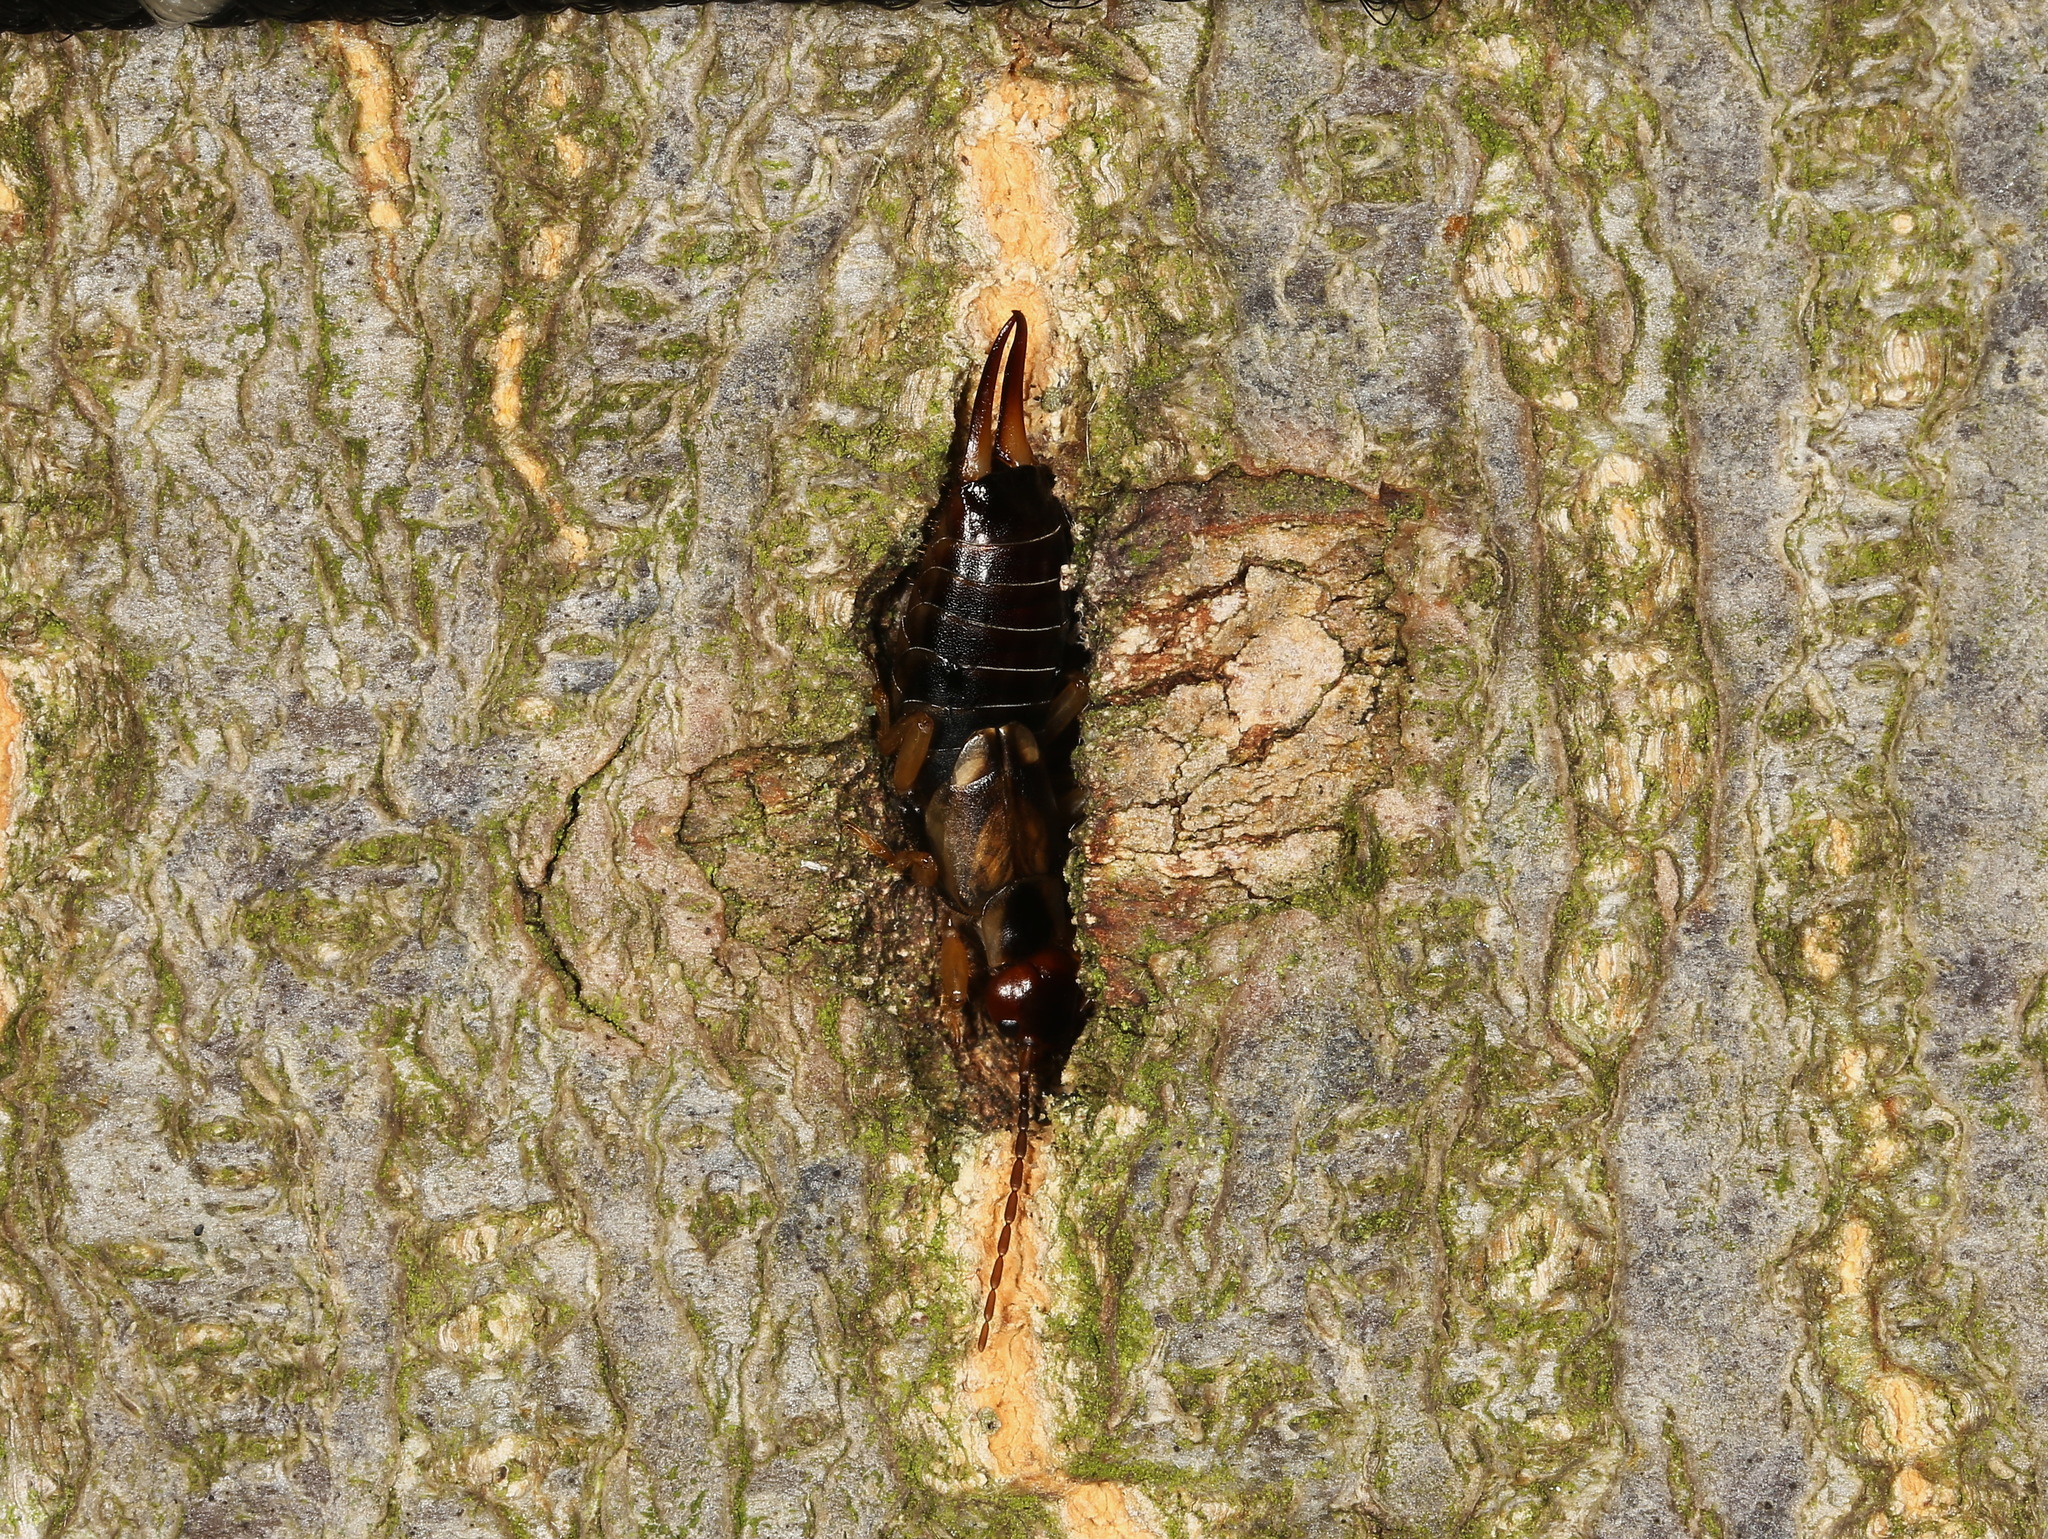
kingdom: Animalia
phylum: Arthropoda
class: Insecta
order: Dermaptera
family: Forficulidae
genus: Forficula
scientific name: Forficula
